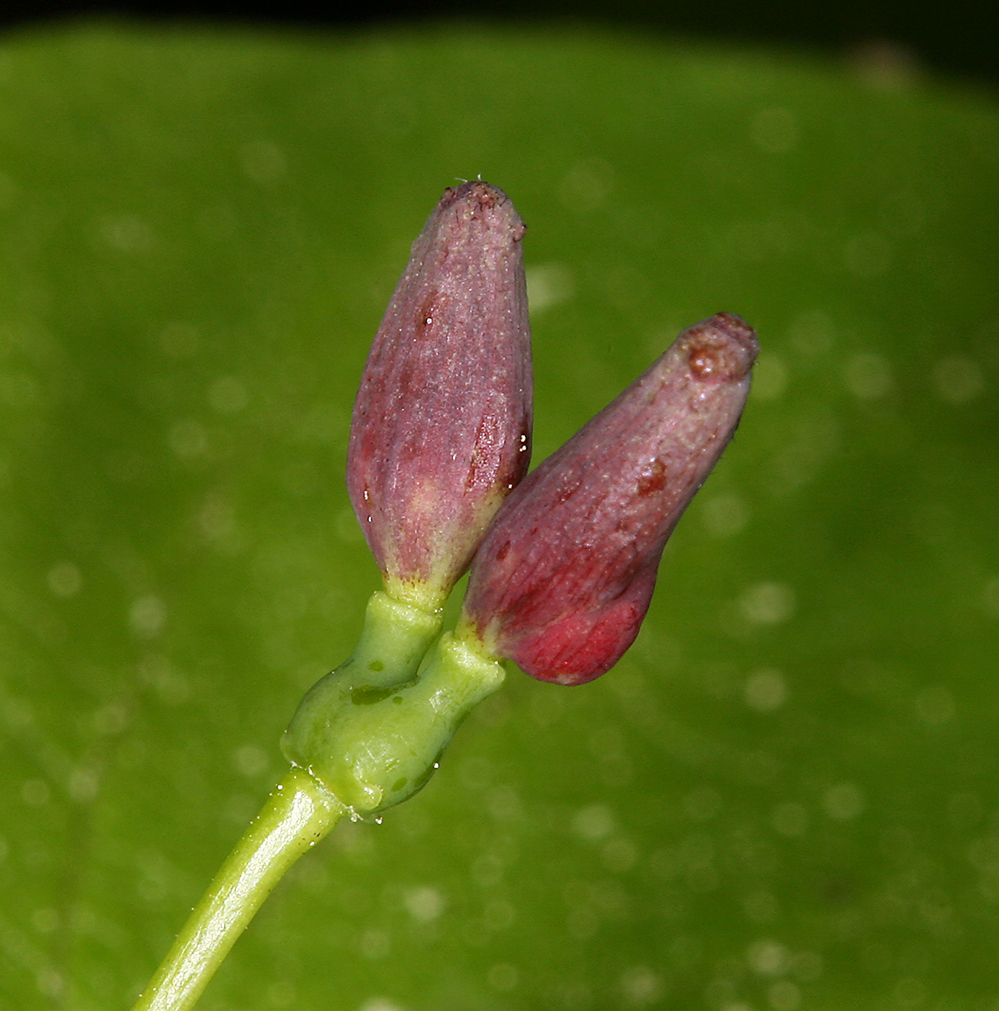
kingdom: Plantae
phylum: Tracheophyta
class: Magnoliopsida
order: Dipsacales
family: Caprifoliaceae
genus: Lonicera
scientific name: Lonicera conjugialis
